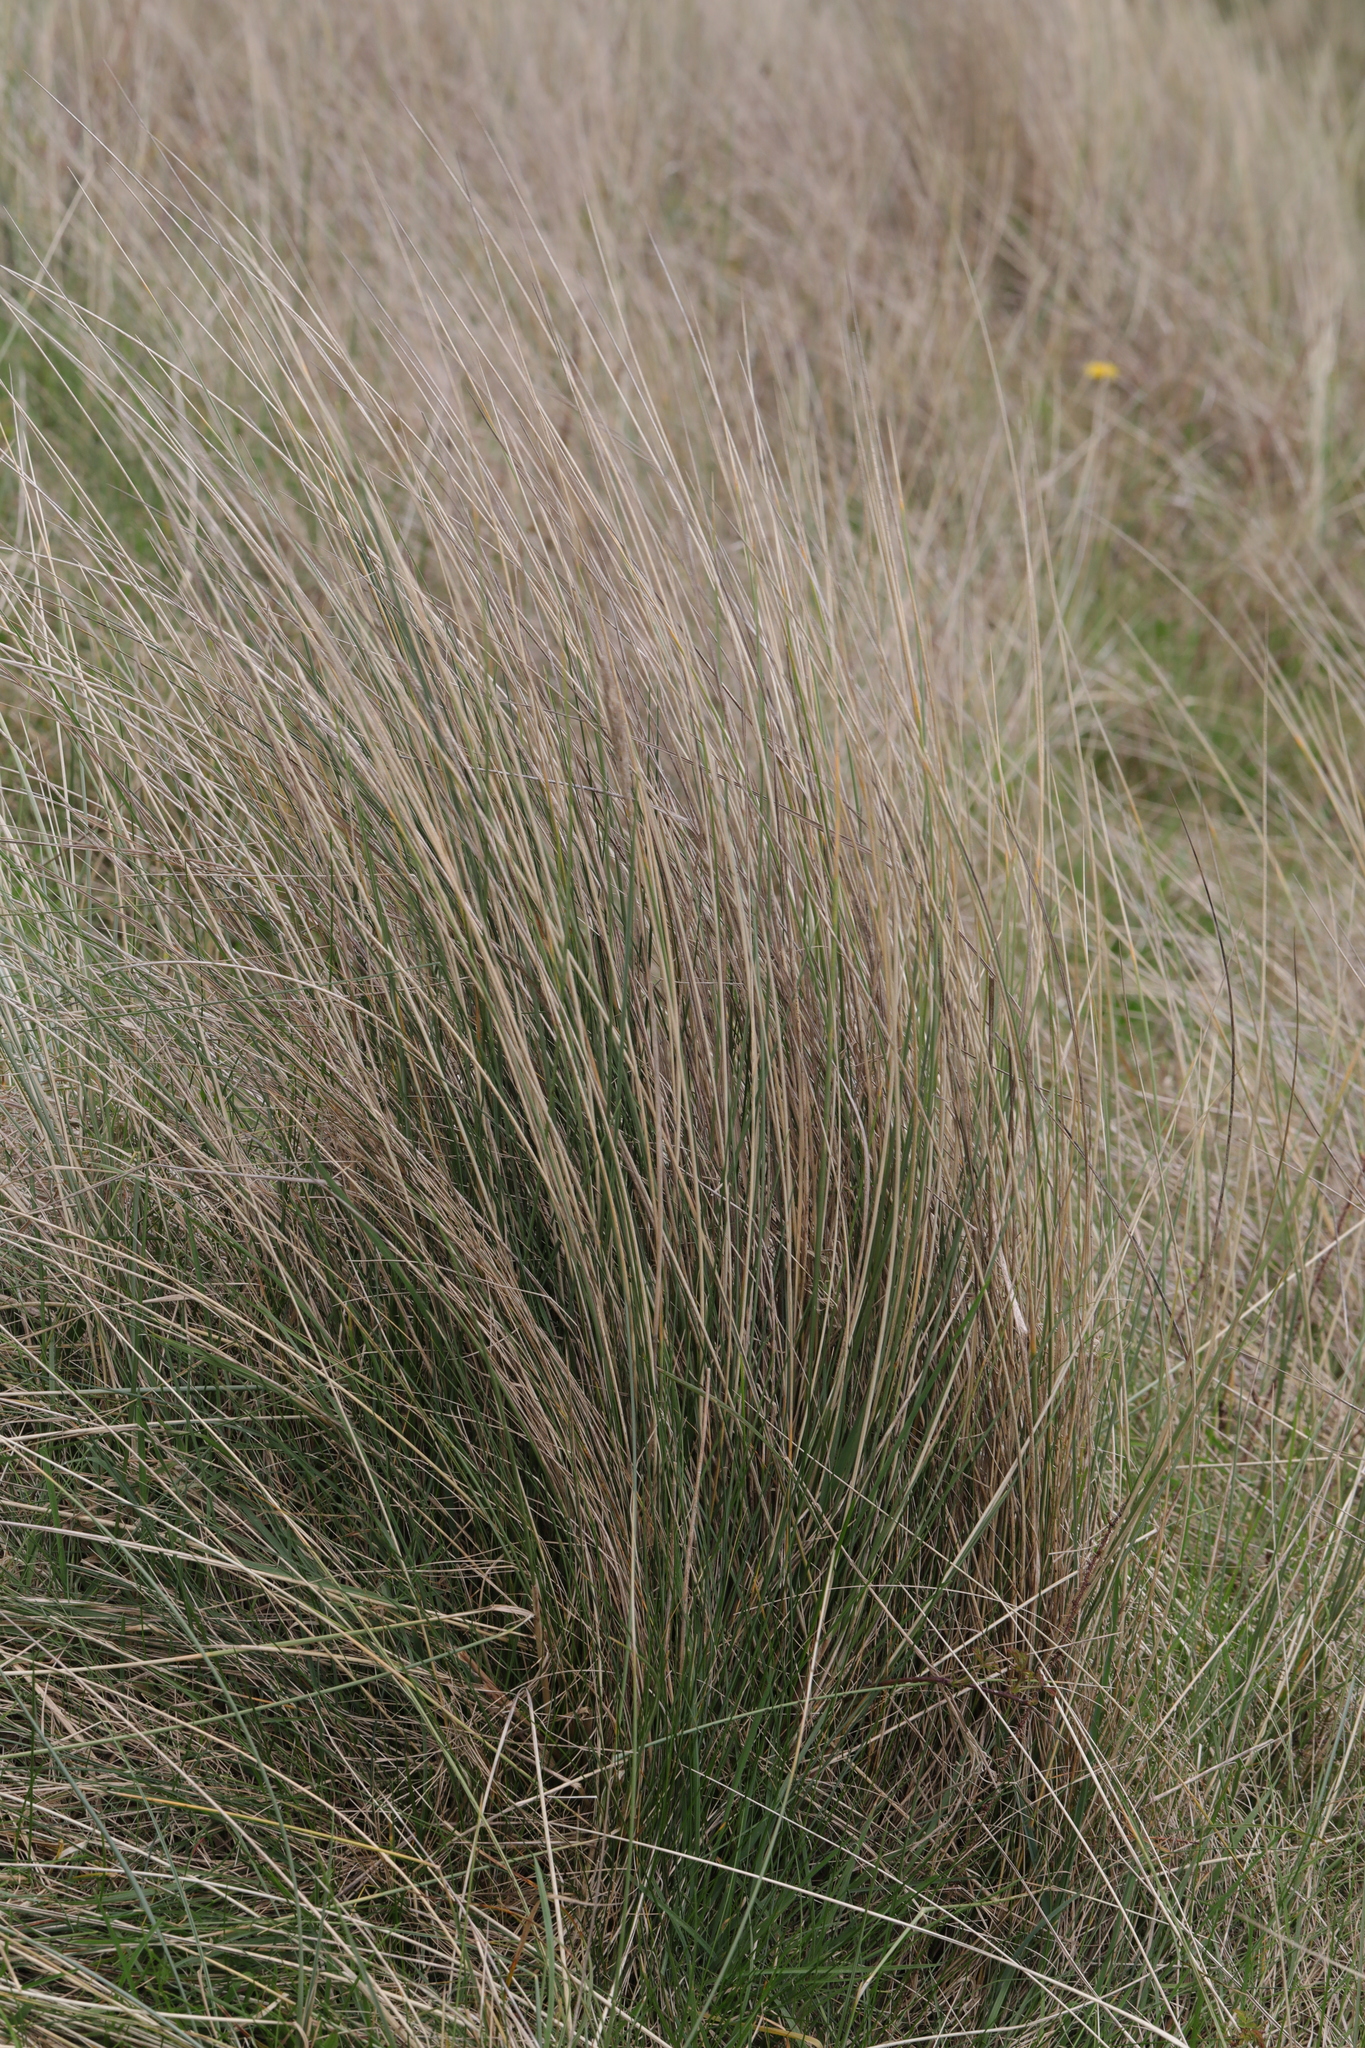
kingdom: Plantae
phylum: Tracheophyta
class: Liliopsida
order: Poales
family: Poaceae
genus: Calamagrostis
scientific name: Calamagrostis arenaria
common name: European beachgrass
